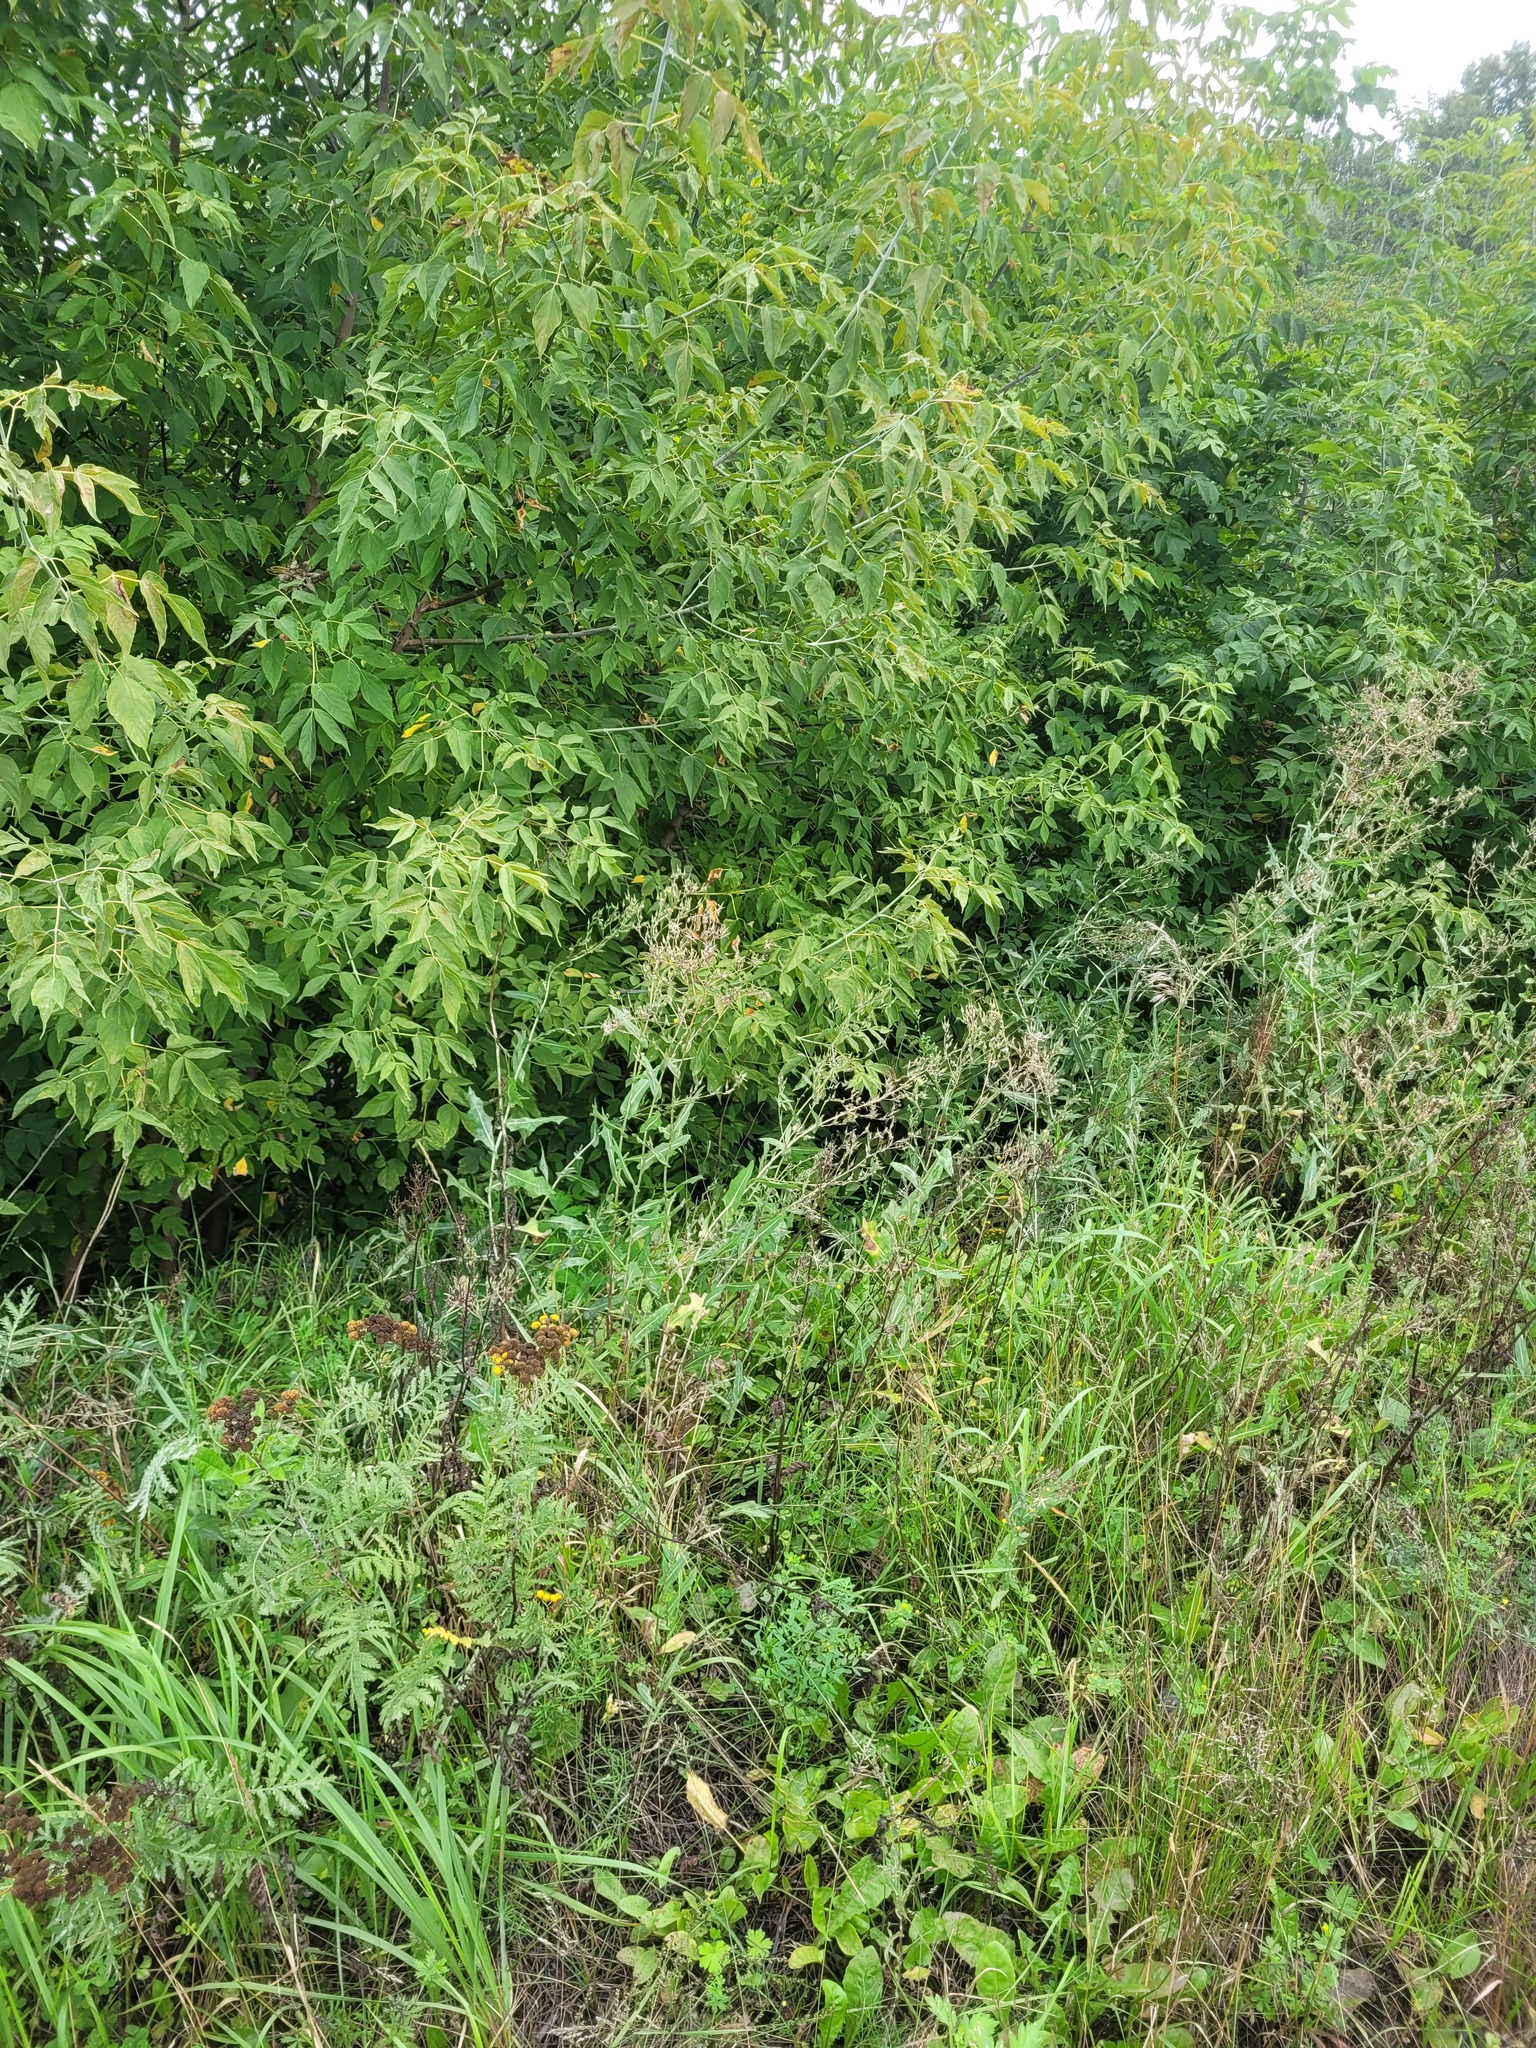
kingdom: Plantae
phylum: Tracheophyta
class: Magnoliopsida
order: Asterales
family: Asteraceae
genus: Lactuca
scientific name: Lactuca serriola
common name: Prickly lettuce
